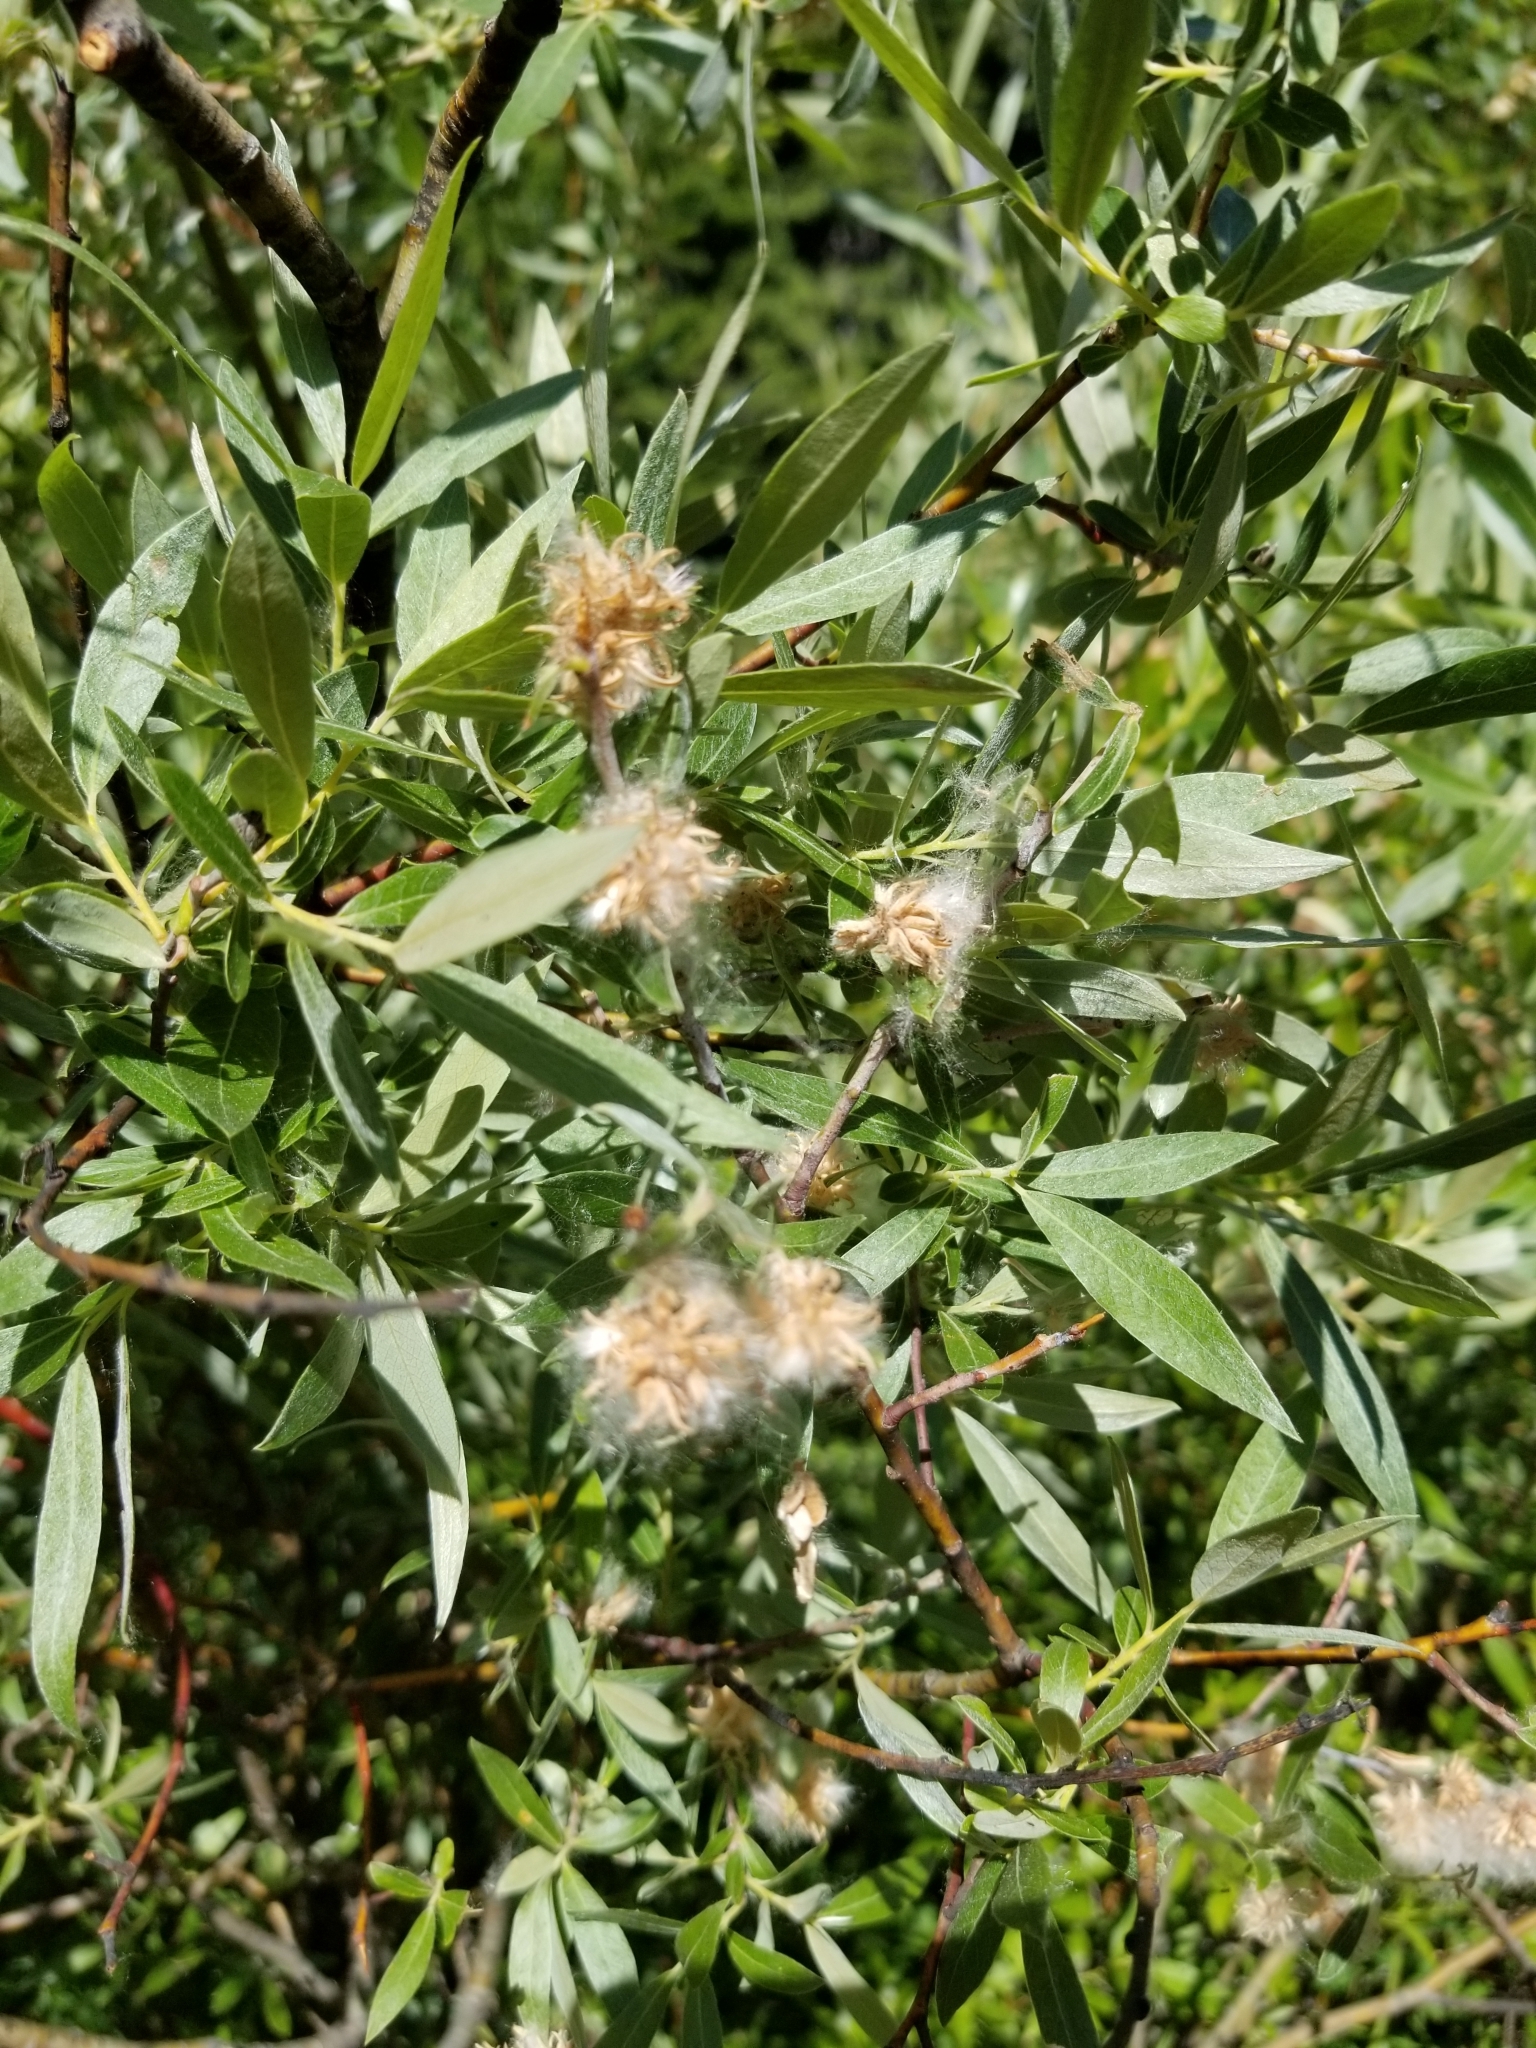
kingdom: Plantae
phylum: Tracheophyta
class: Magnoliopsida
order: Malpighiales
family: Salicaceae
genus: Salix
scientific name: Salix exigua
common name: Coyote willow
